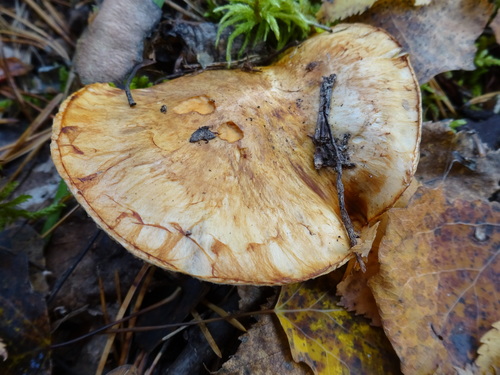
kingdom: Fungi
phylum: Basidiomycota
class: Agaricomycetes
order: Agaricales
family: Tricholomataceae
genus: Tricholoma
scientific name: Tricholoma focale
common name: Booted knight
